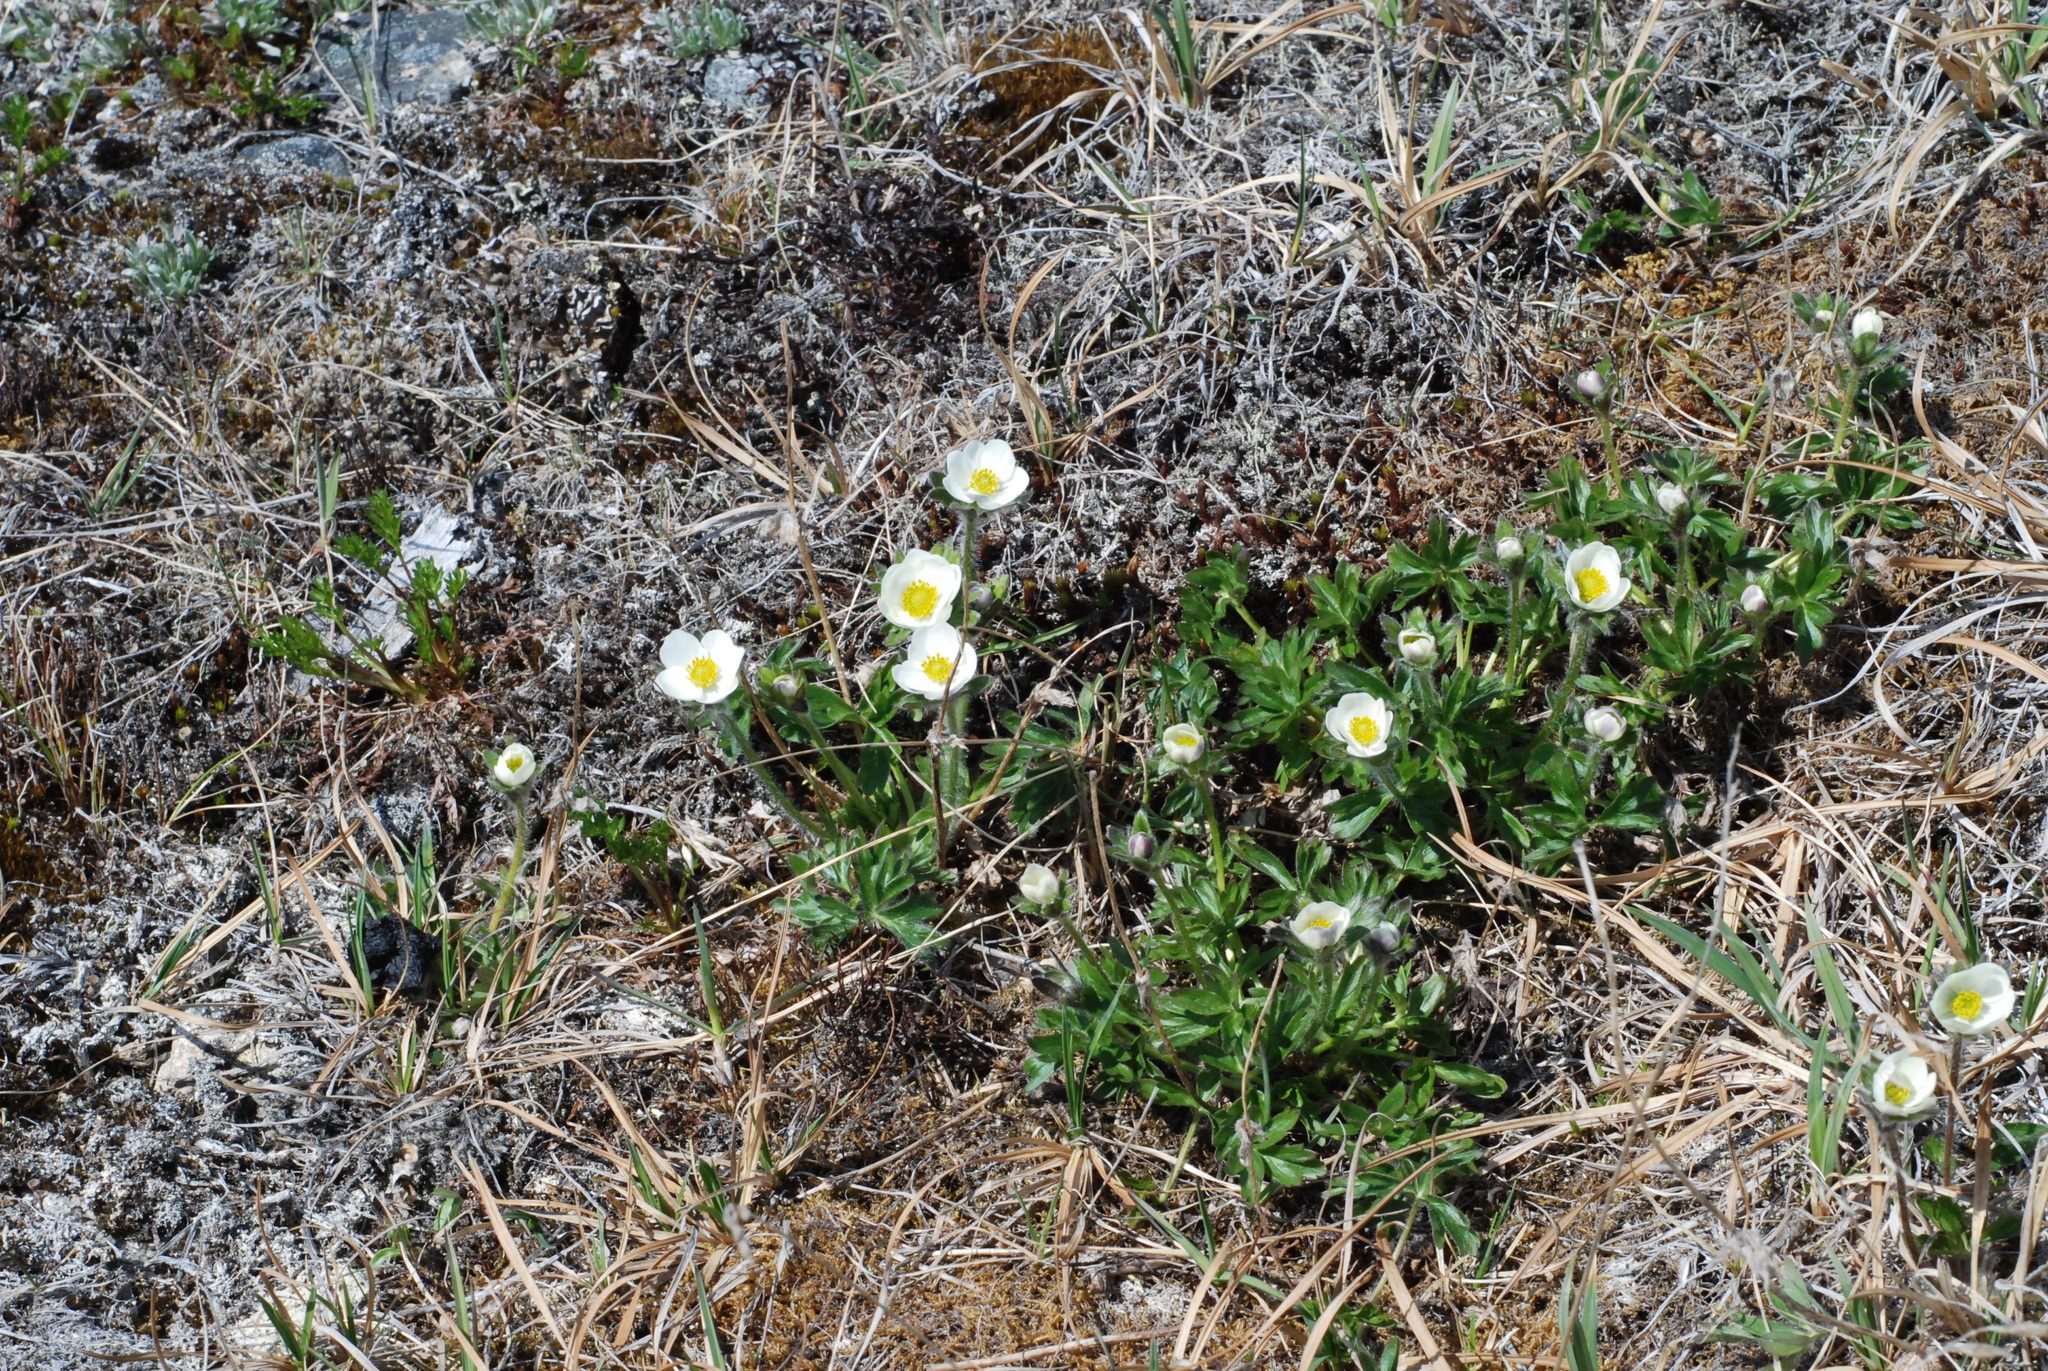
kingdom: Plantae
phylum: Tracheophyta
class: Magnoliopsida
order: Ranunculales
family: Ranunculaceae
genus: Anemonastrum
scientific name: Anemonastrum narcissiflorum
